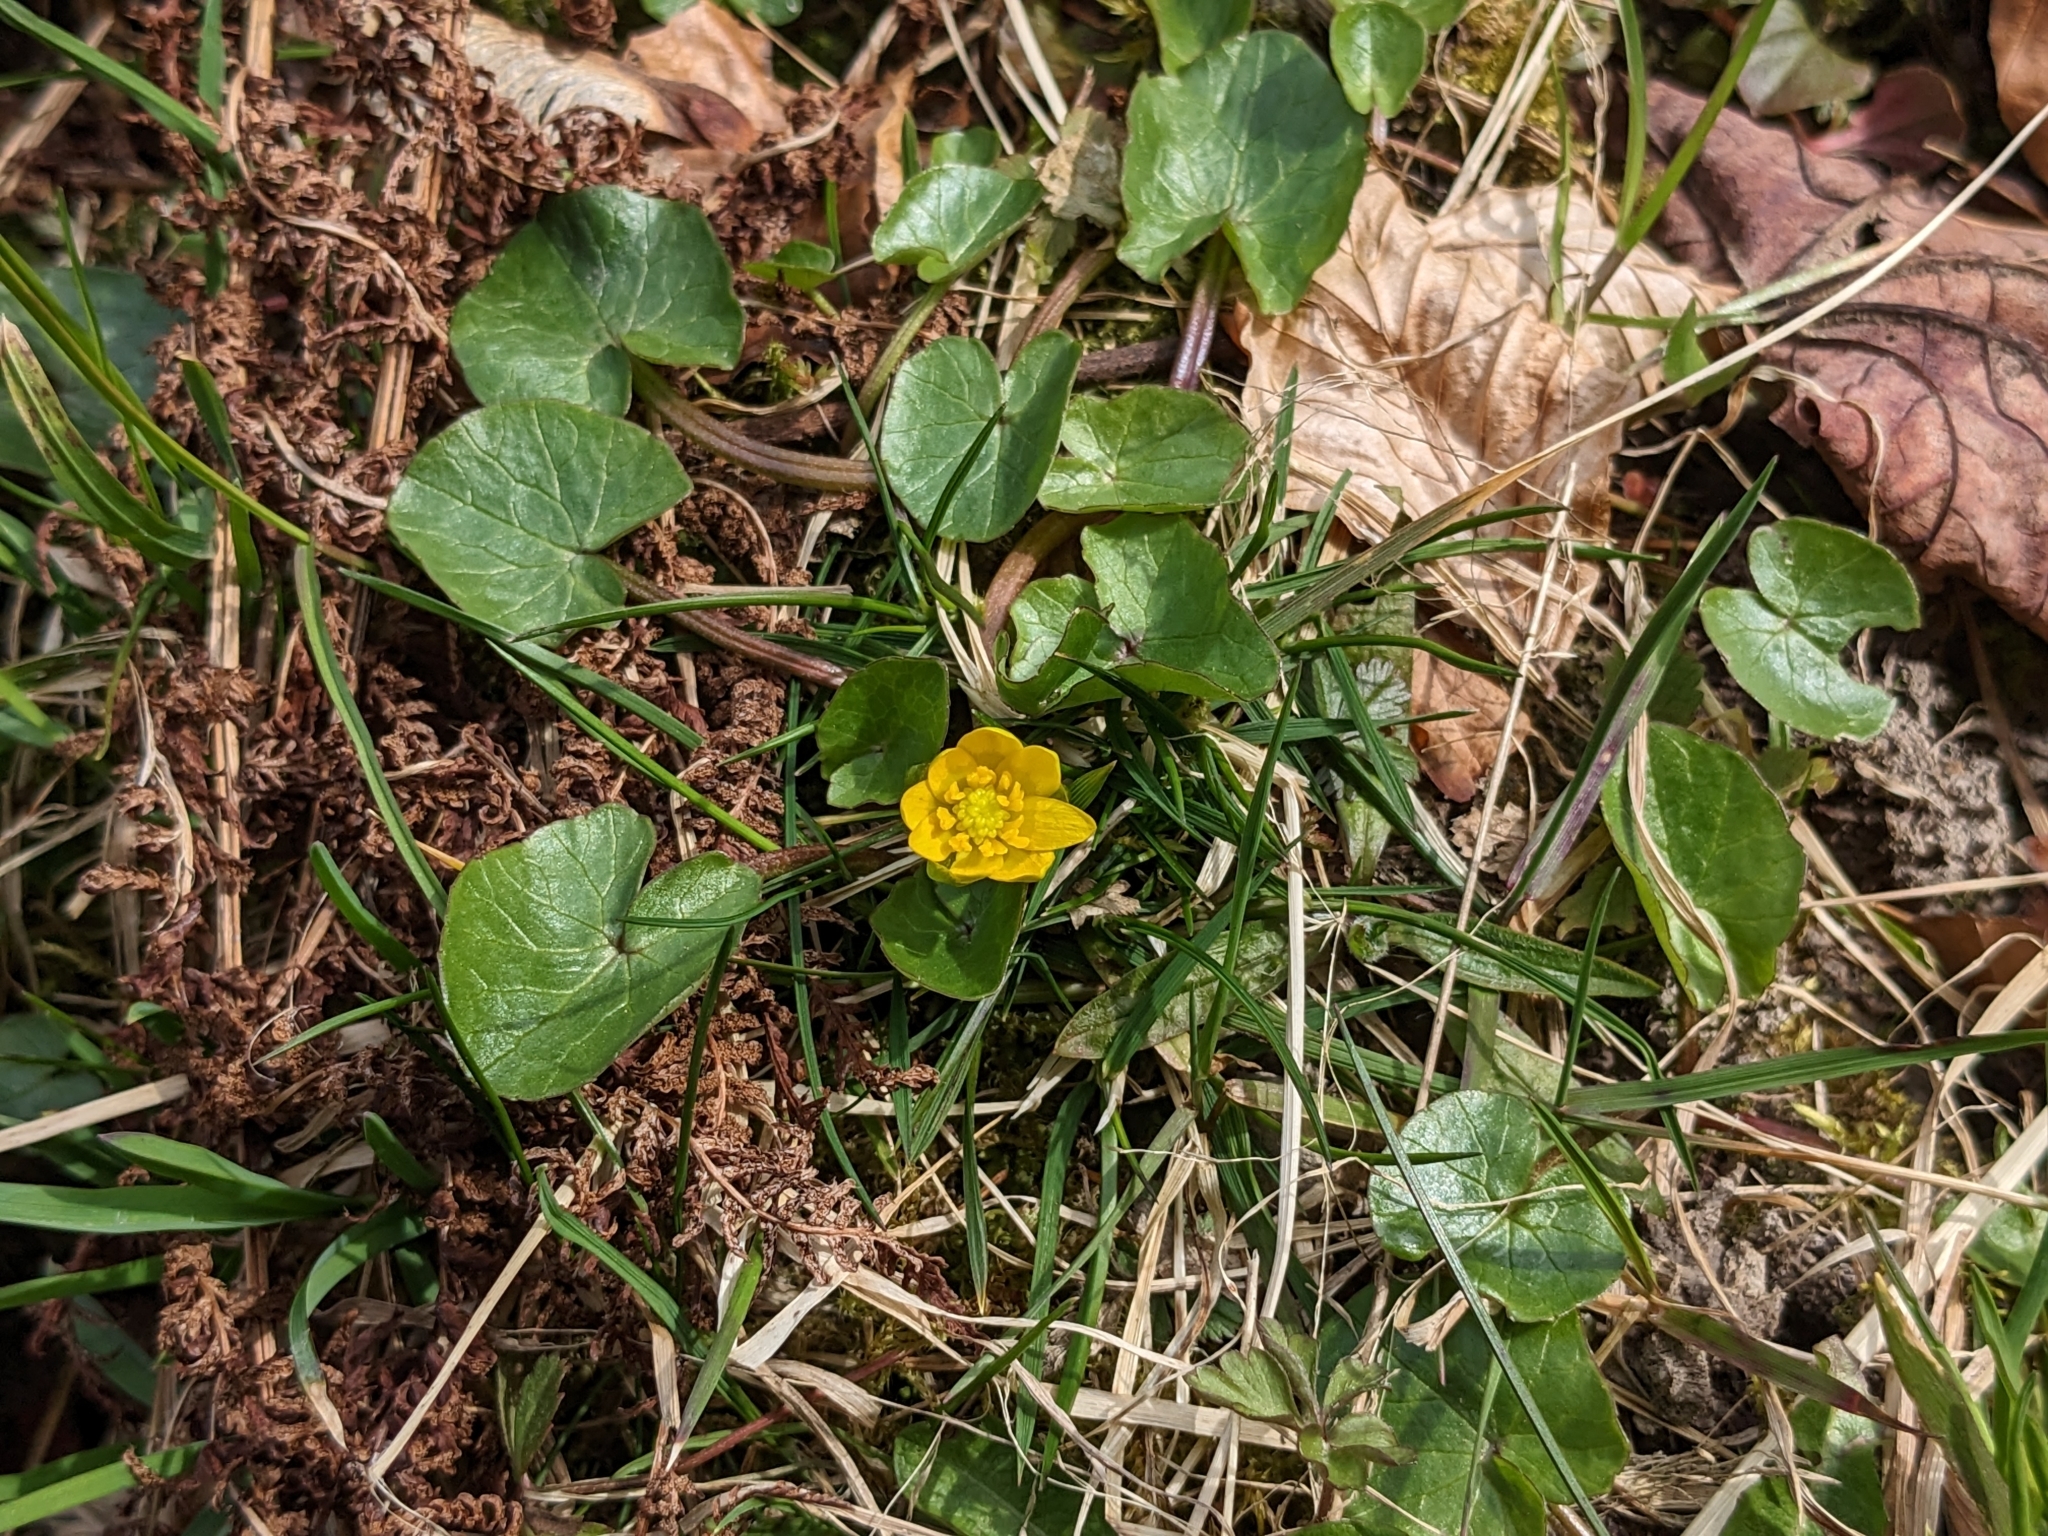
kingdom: Plantae
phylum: Tracheophyta
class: Magnoliopsida
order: Ranunculales
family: Ranunculaceae
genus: Ficaria
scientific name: Ficaria verna
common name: Lesser celandine
